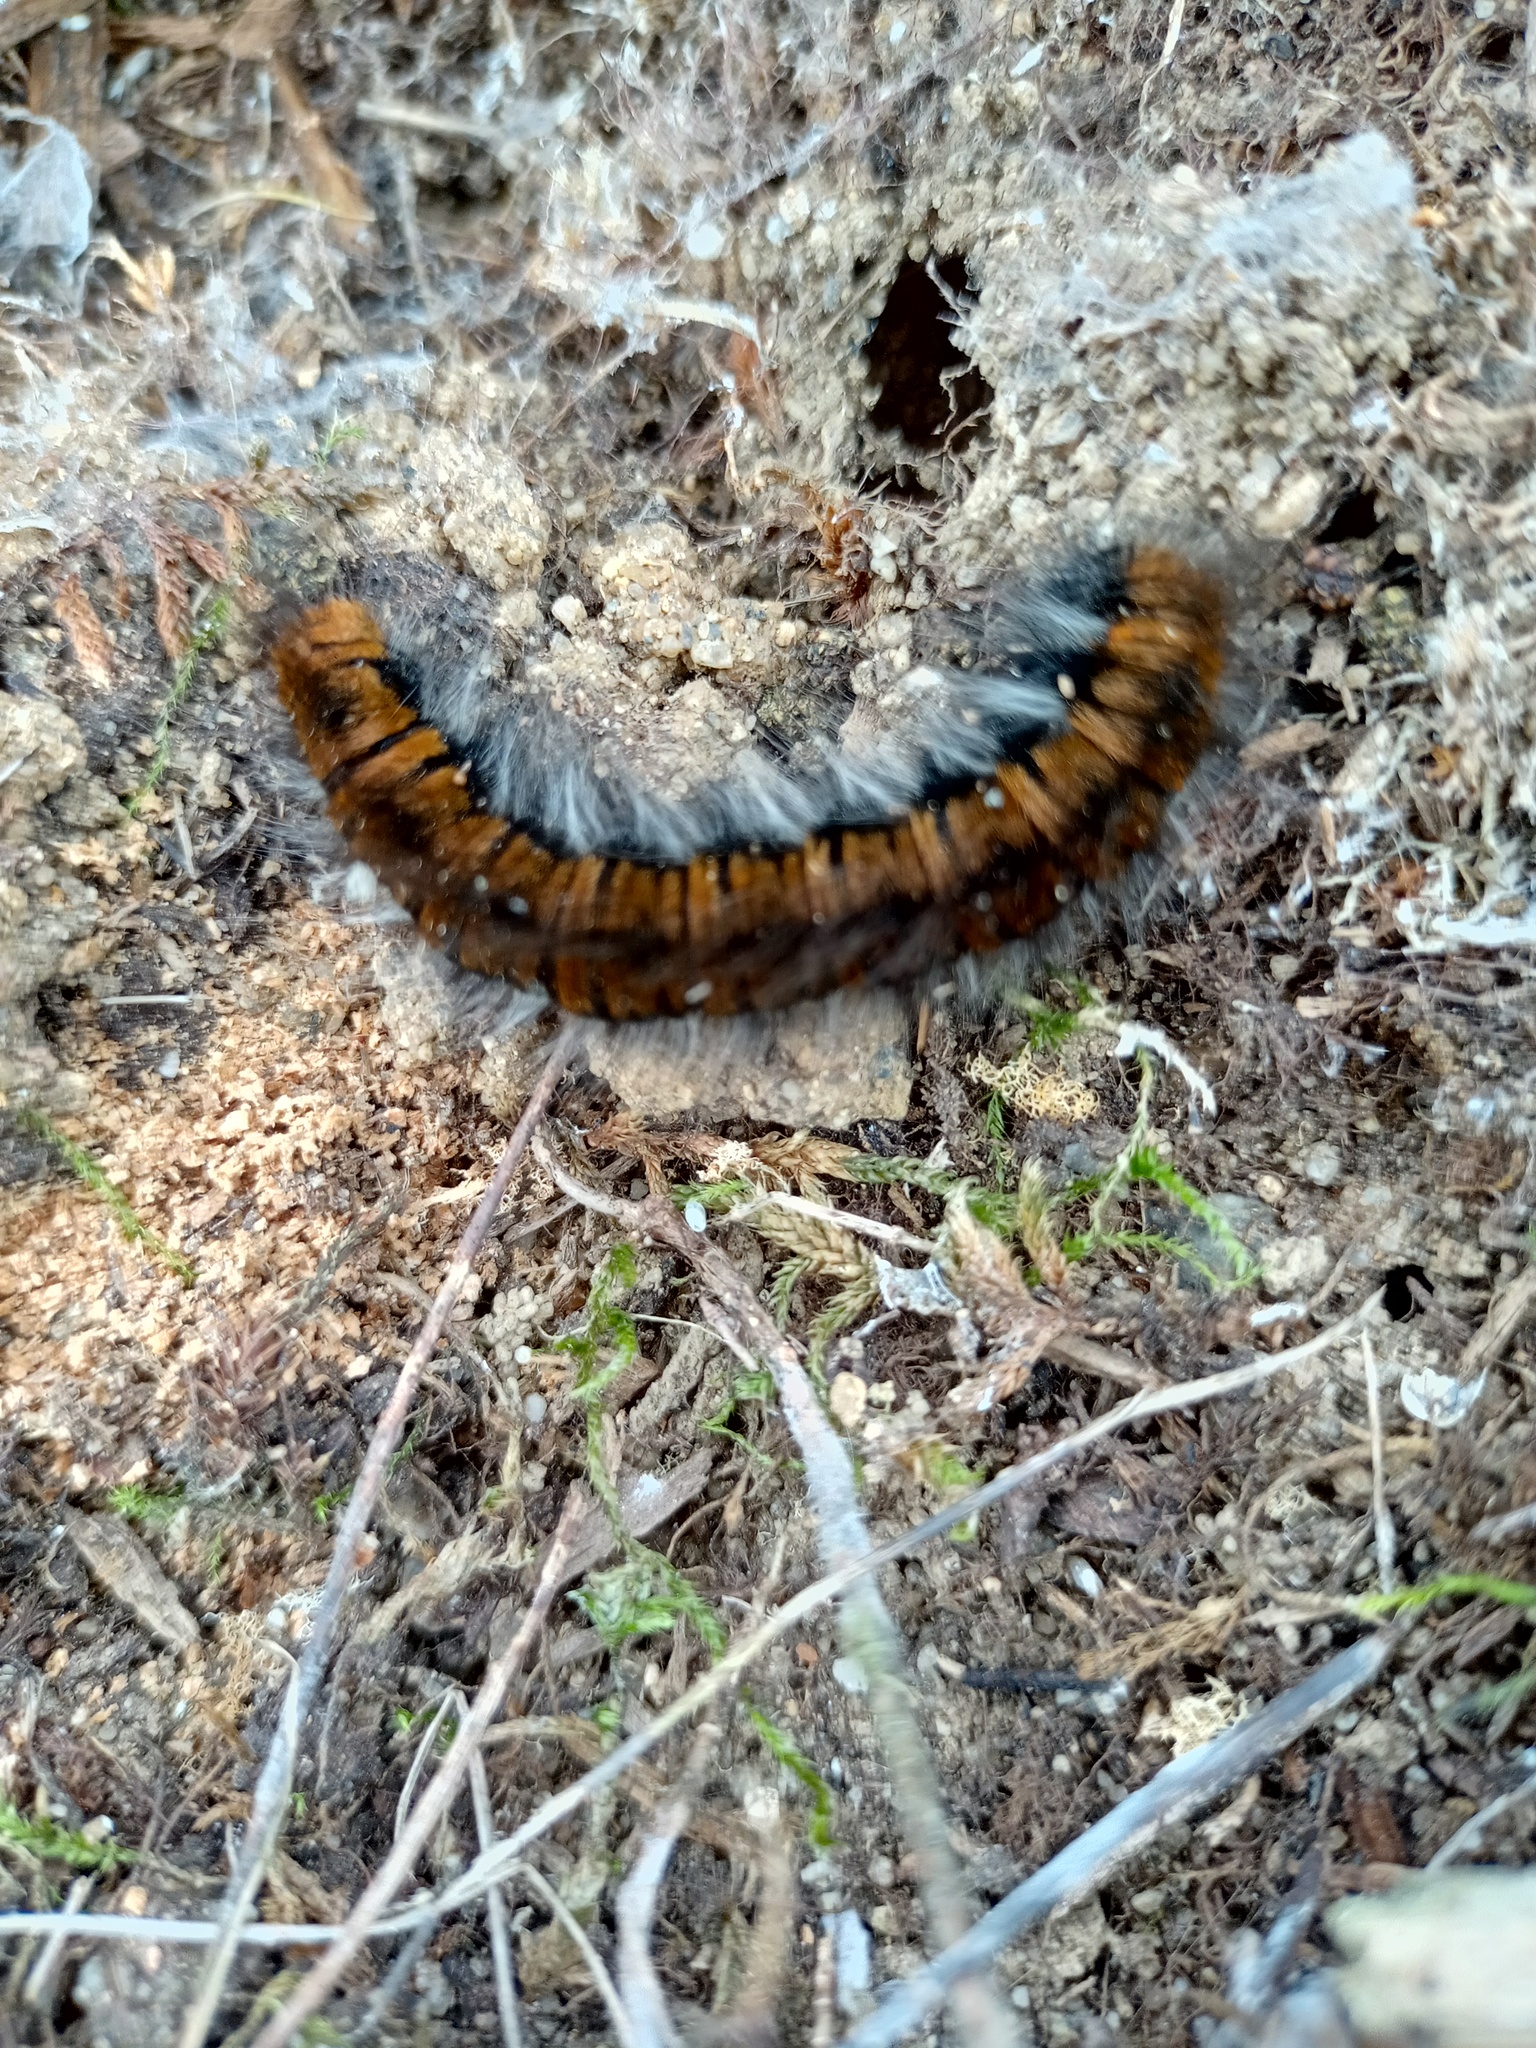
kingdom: Animalia
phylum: Arthropoda
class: Insecta
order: Lepidoptera
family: Lasiocampidae
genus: Macrothylacia
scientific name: Macrothylacia rubi
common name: Fox moth
